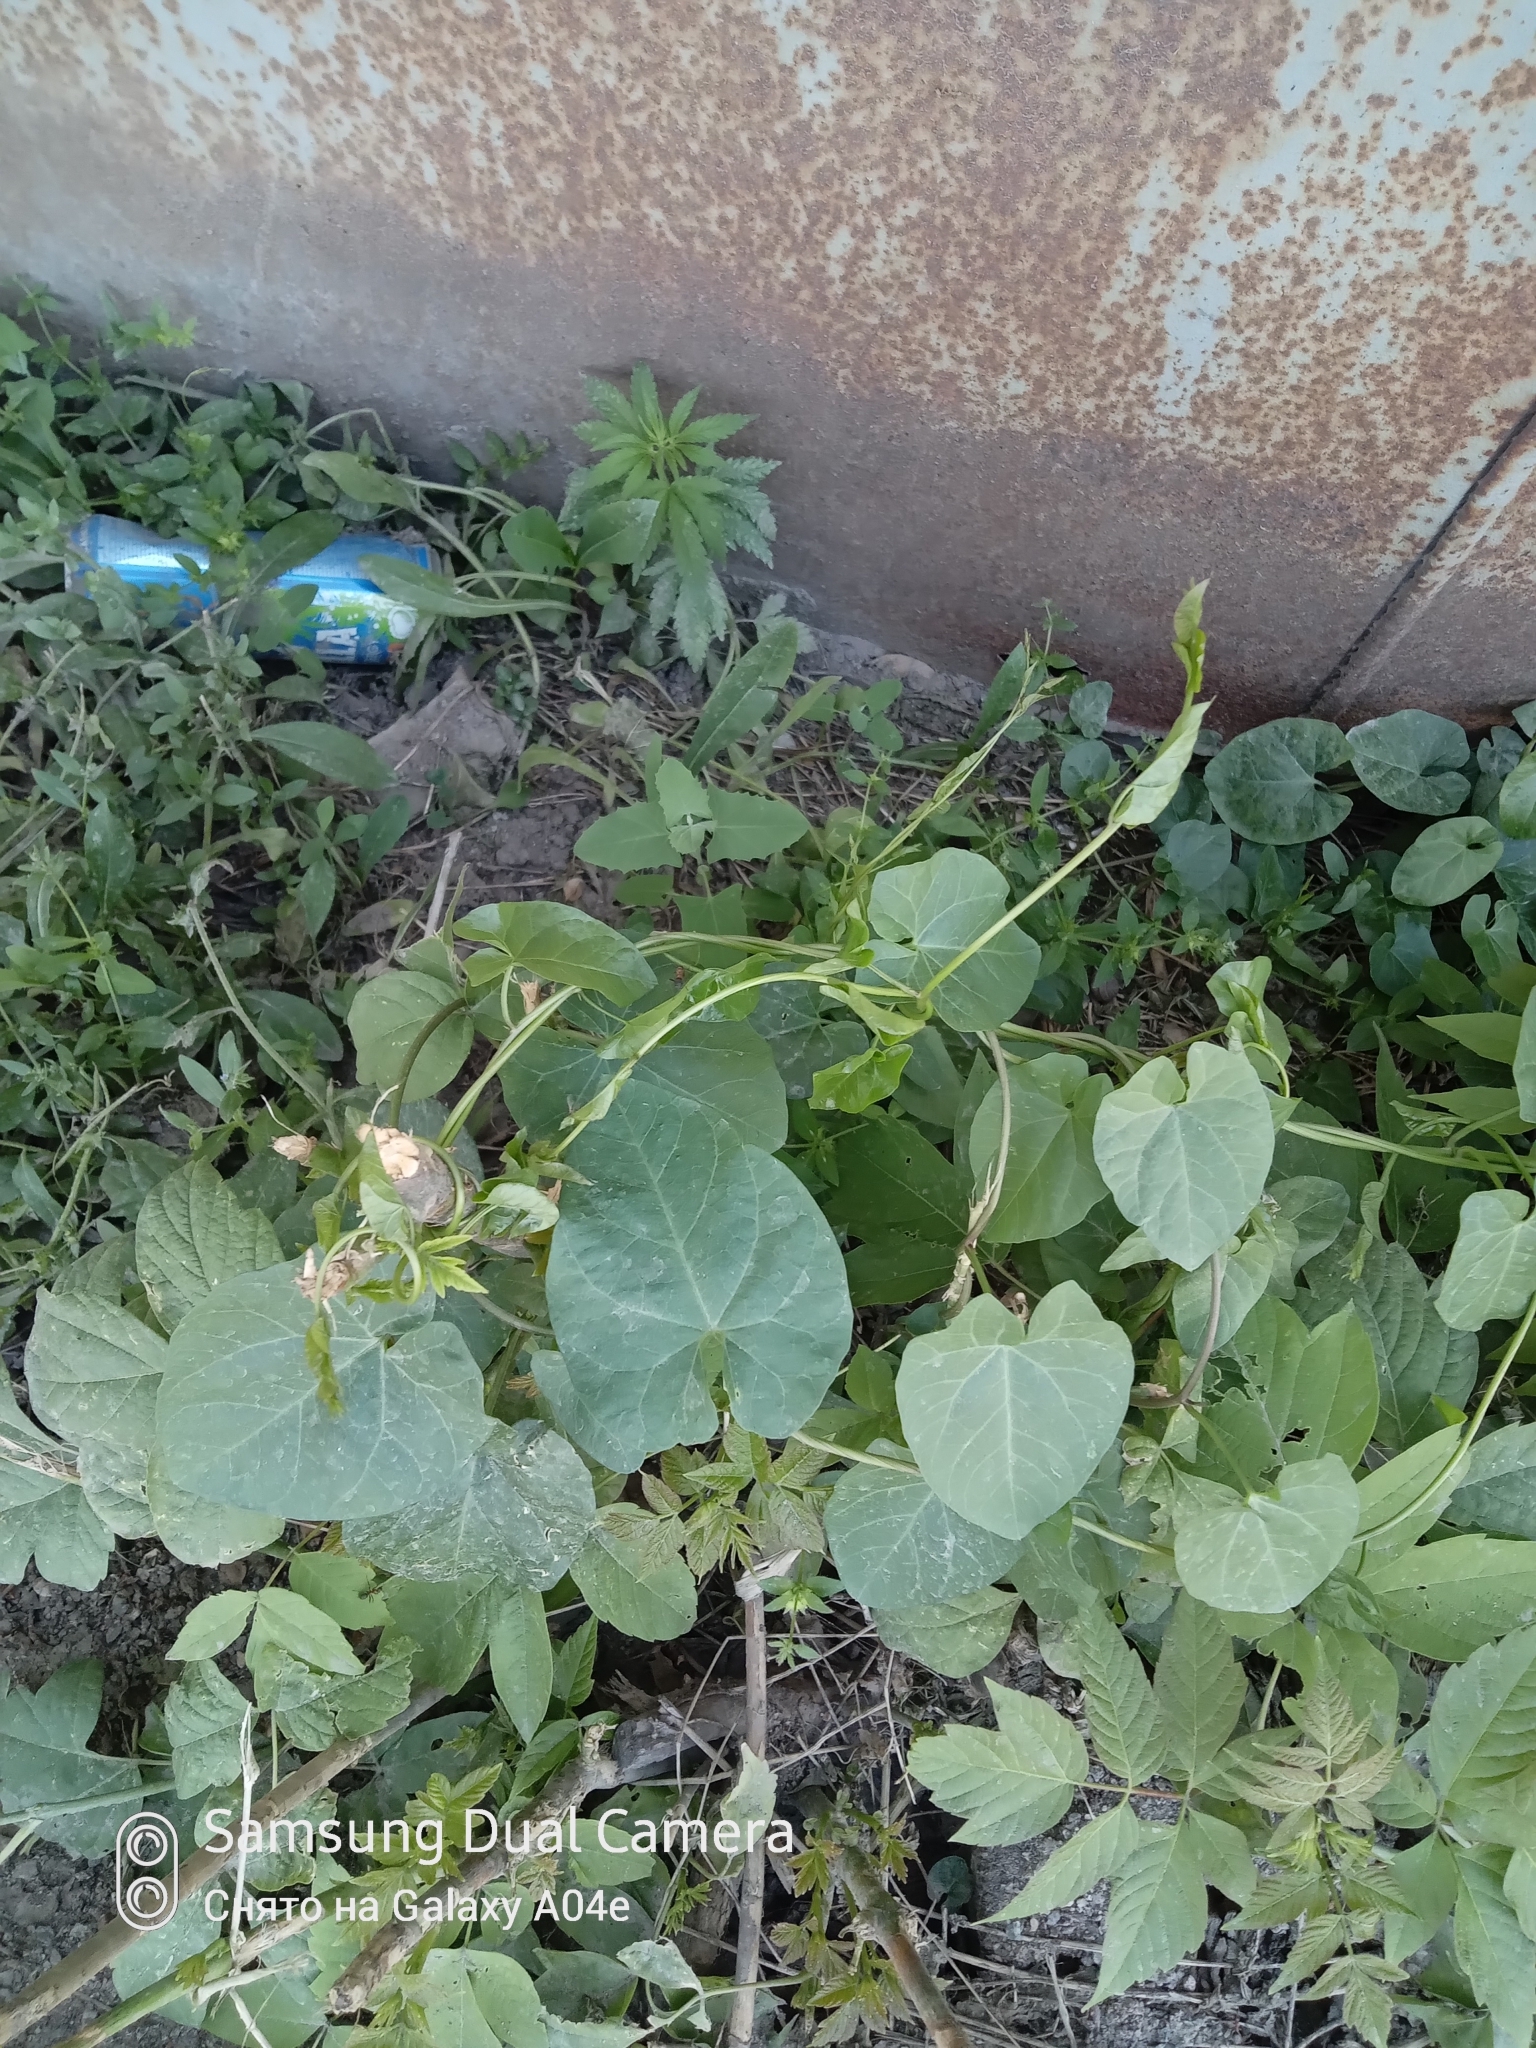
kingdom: Plantae
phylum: Tracheophyta
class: Magnoliopsida
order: Solanales
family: Convolvulaceae
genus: Convolvulus
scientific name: Convolvulus arvensis
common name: Field bindweed
